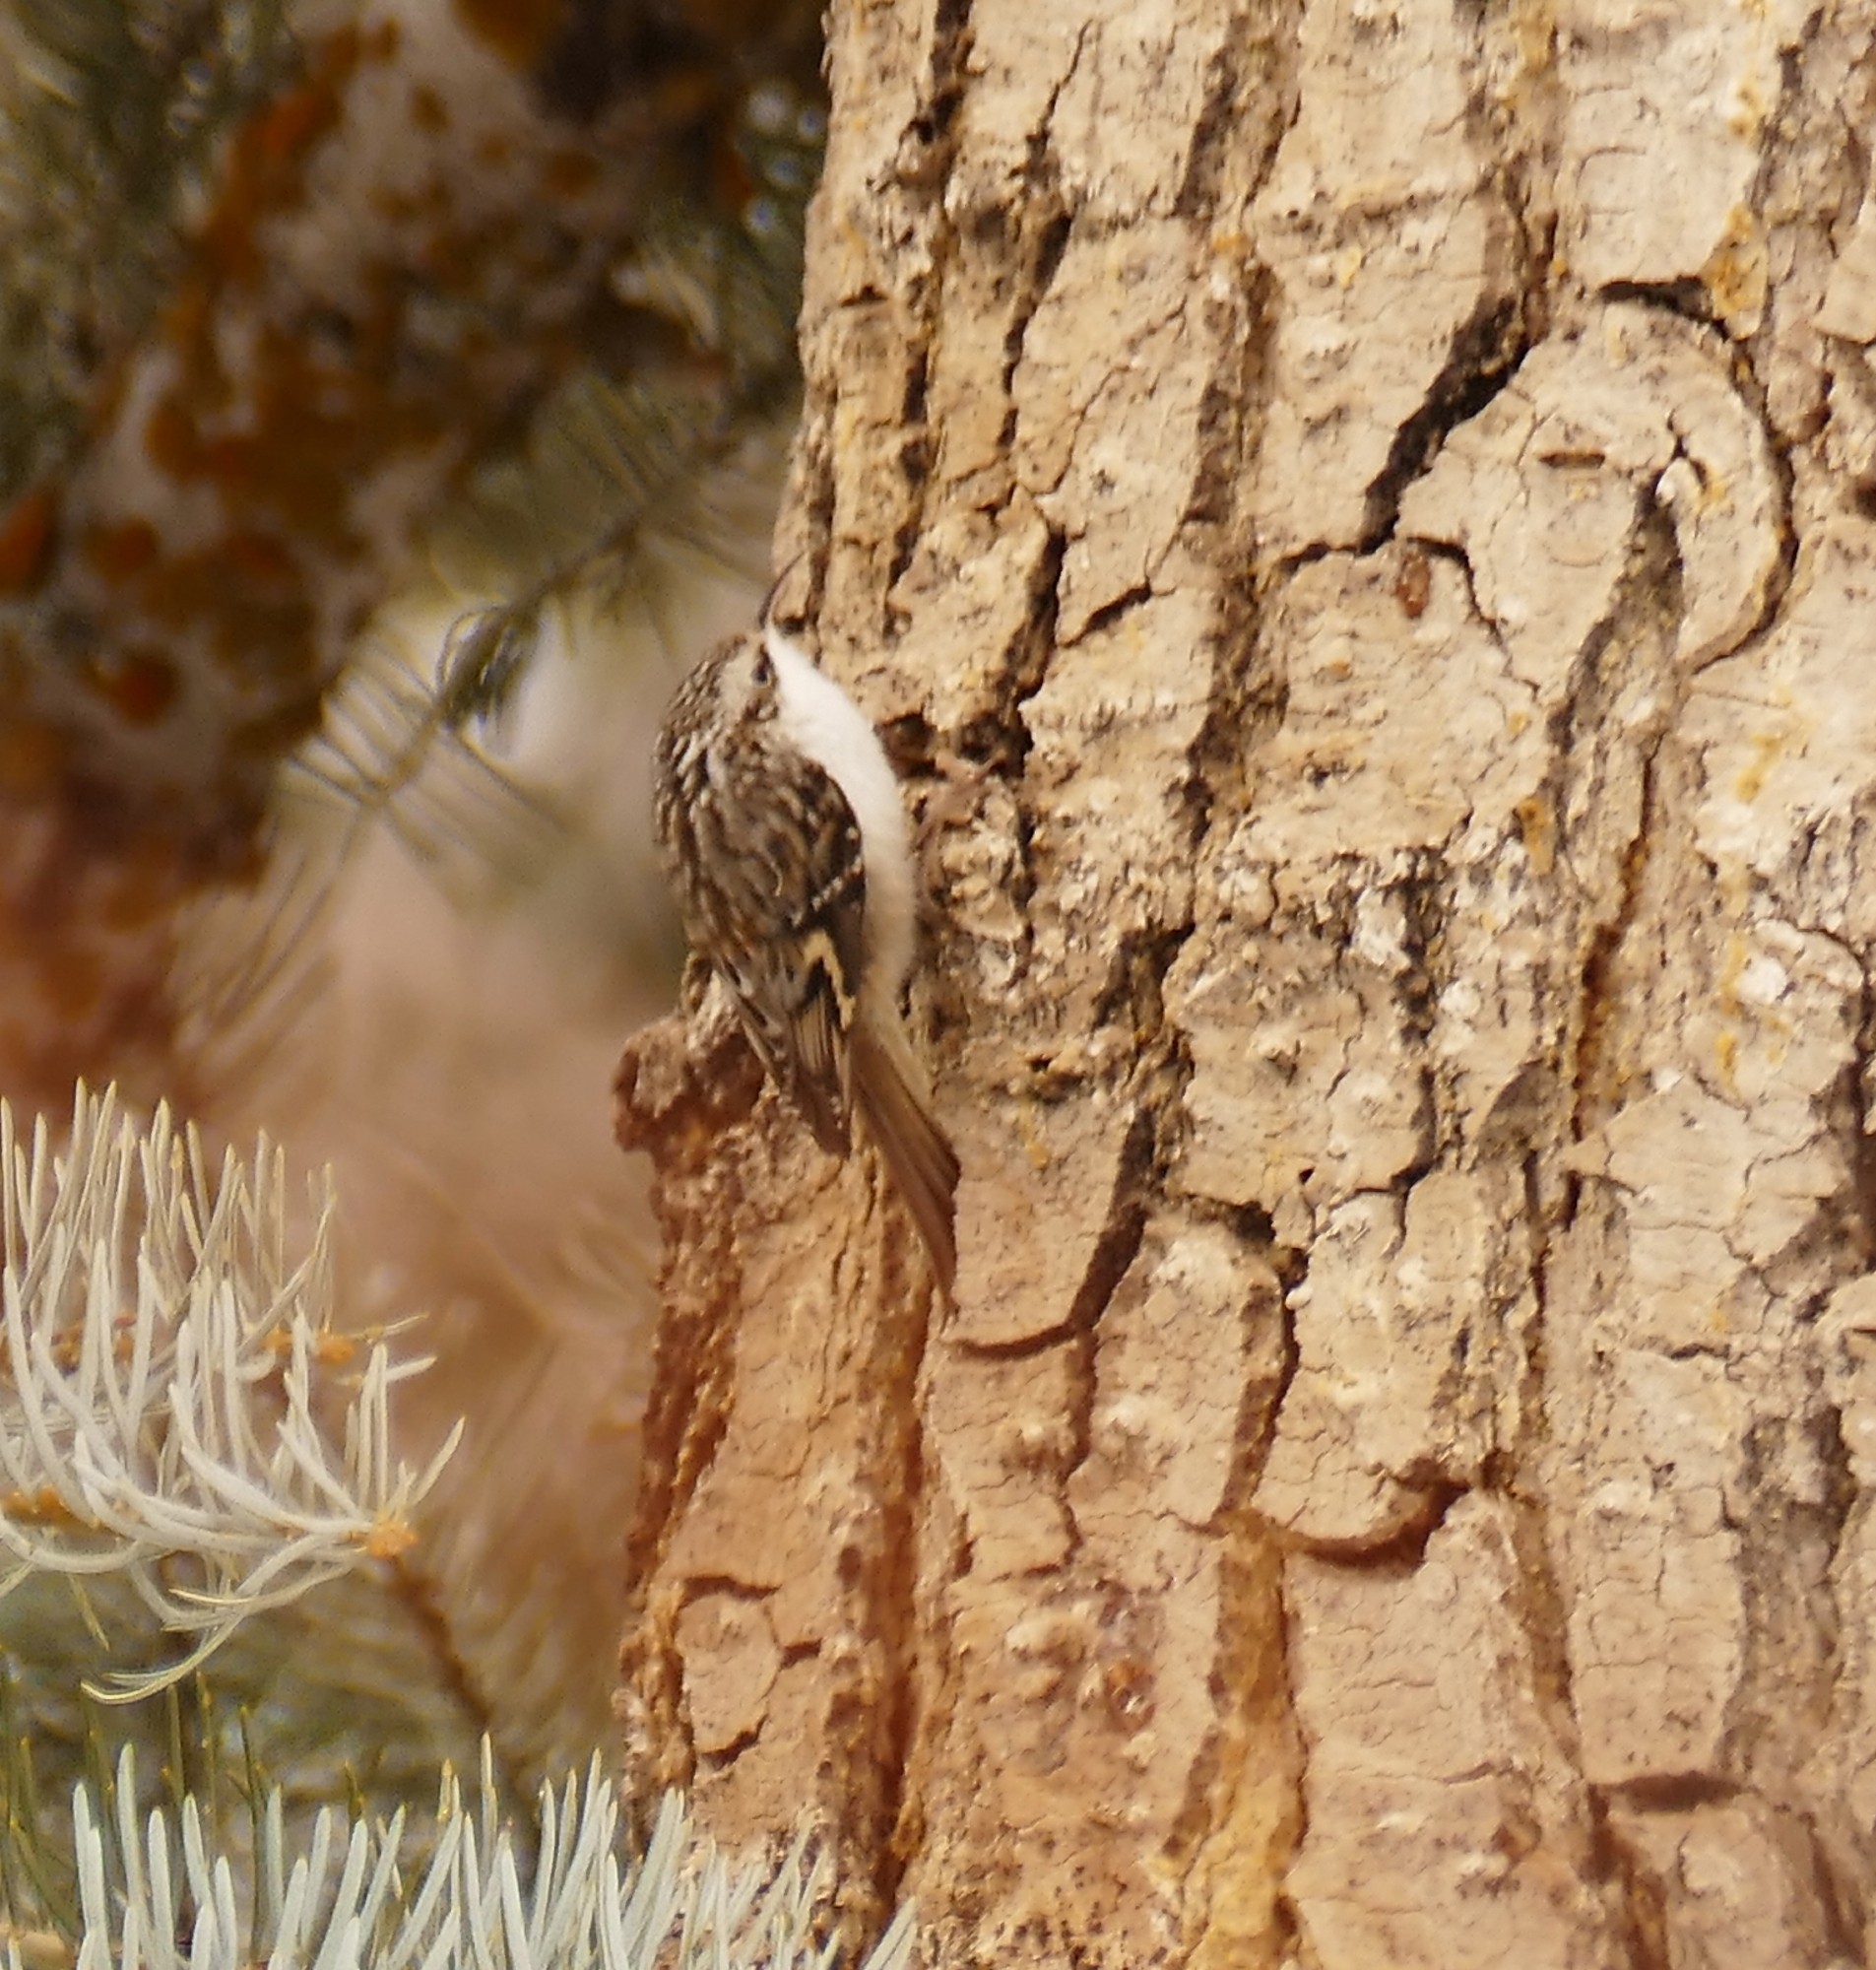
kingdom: Animalia
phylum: Chordata
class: Aves
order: Passeriformes
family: Certhiidae
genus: Certhia
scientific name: Certhia americana
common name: Brown creeper
